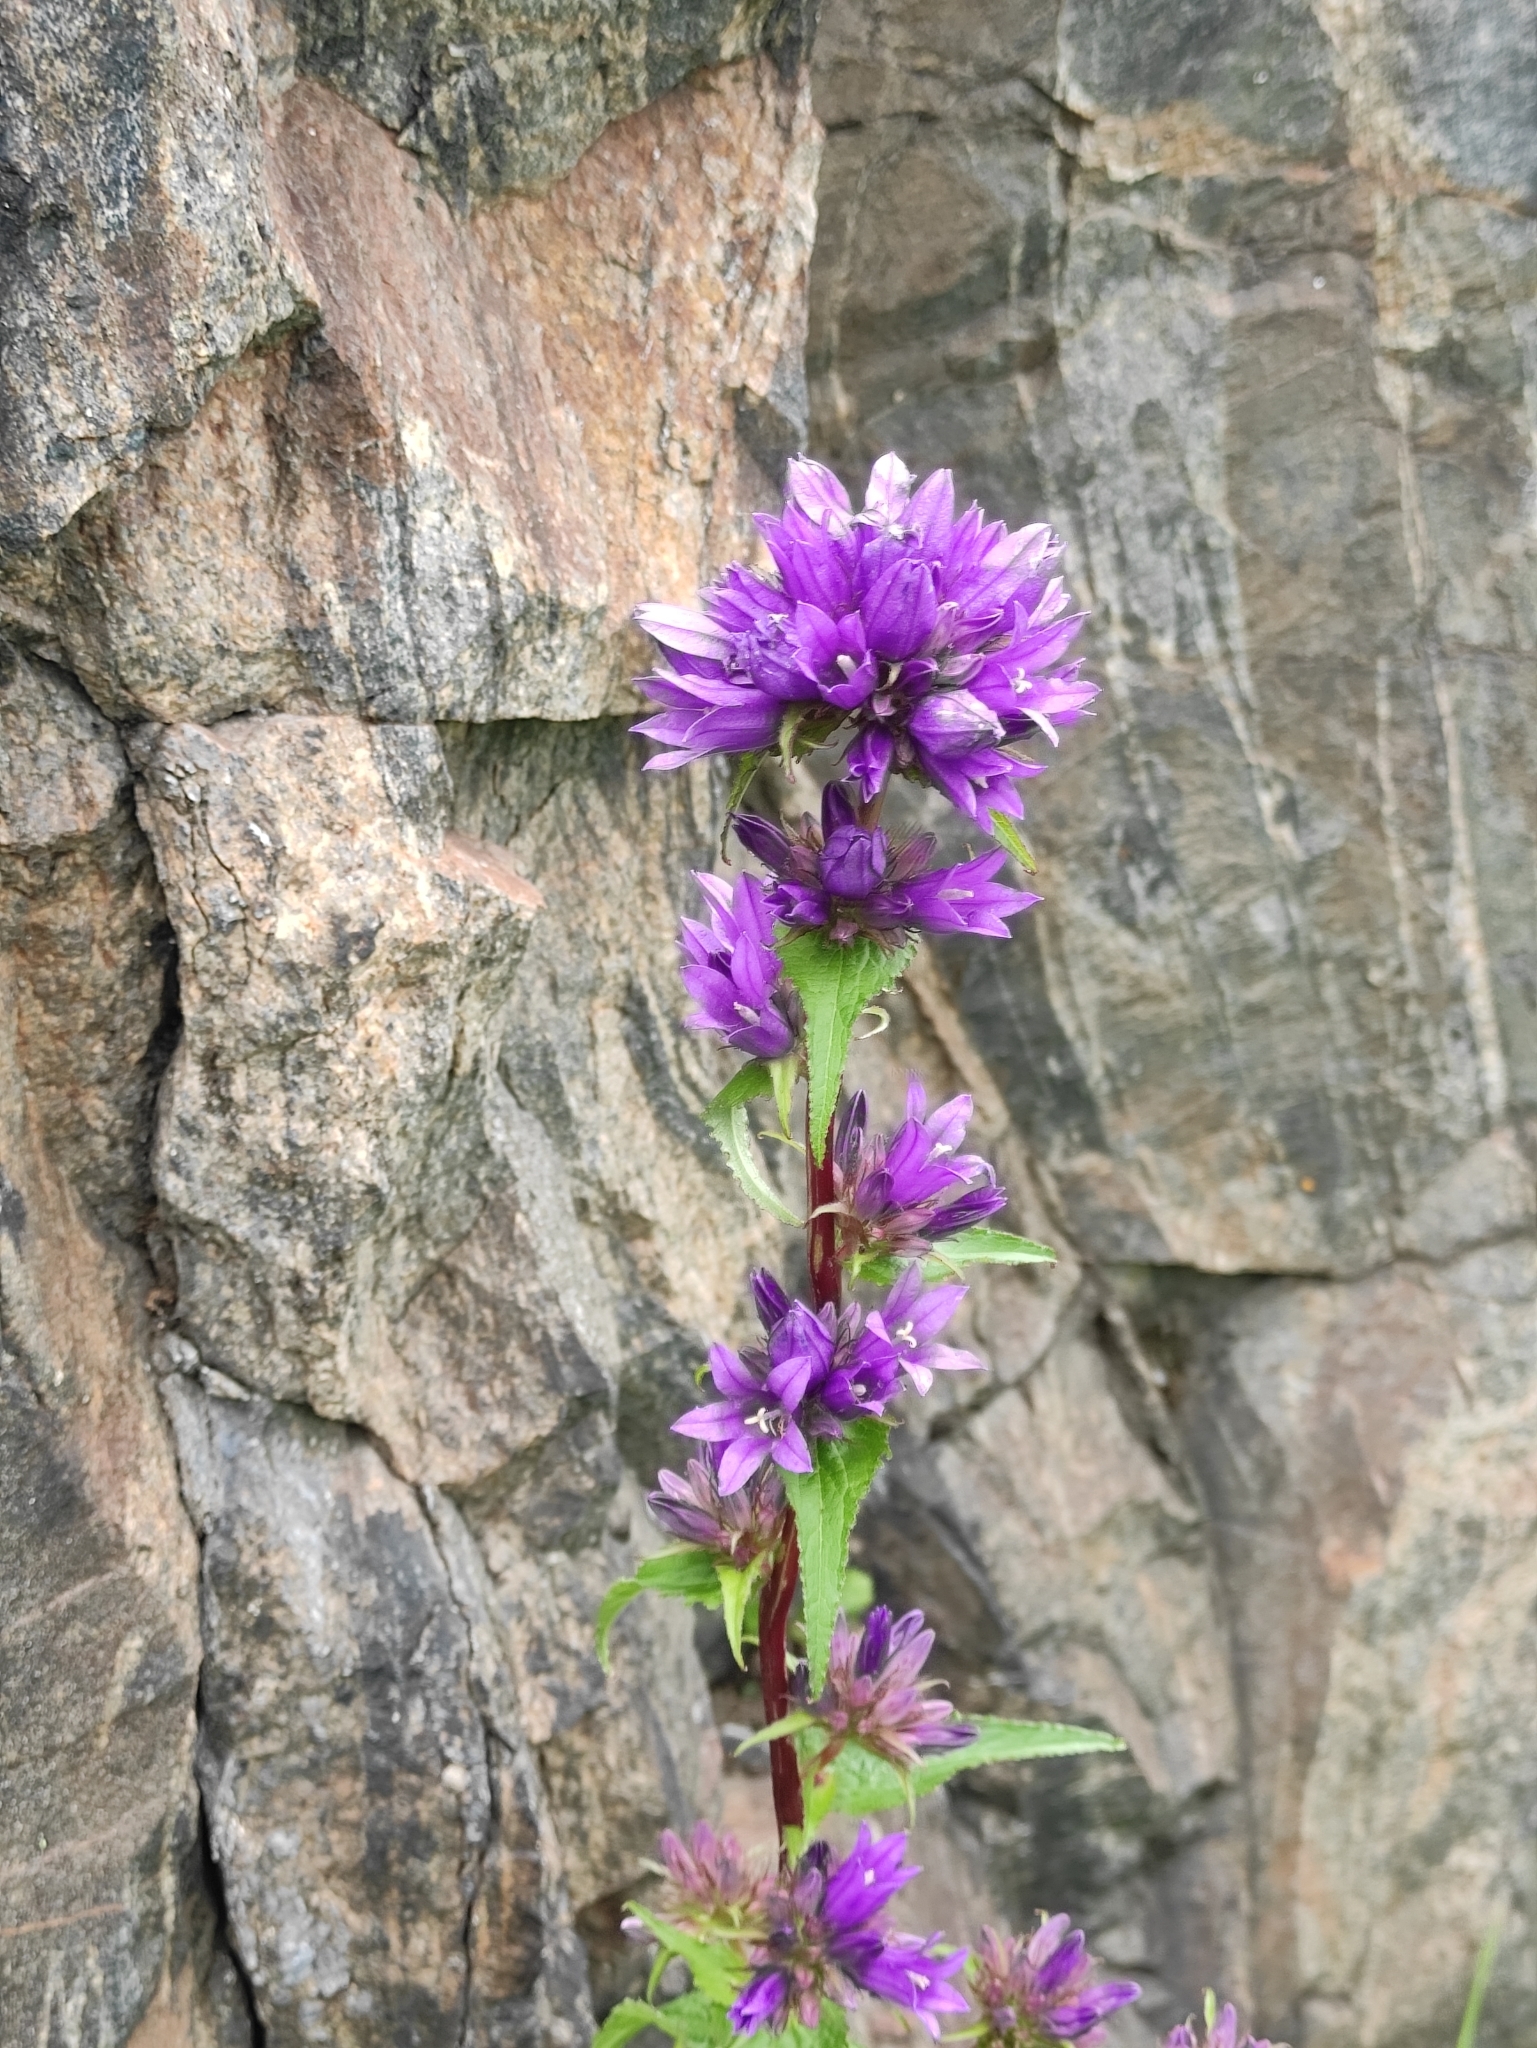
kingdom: Plantae
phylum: Tracheophyta
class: Magnoliopsida
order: Asterales
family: Campanulaceae
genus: Campanula
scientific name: Campanula glomerata
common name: Clustered bellflower
